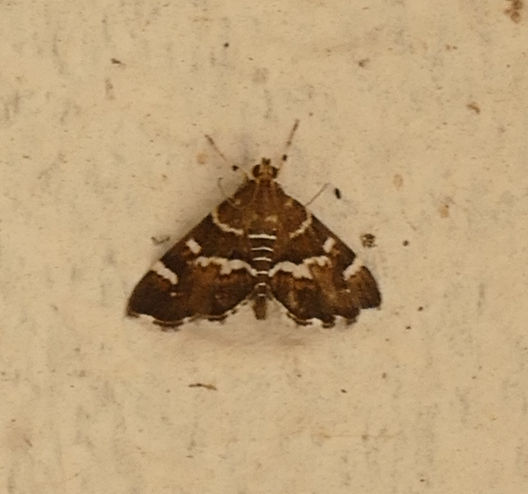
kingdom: Animalia
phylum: Arthropoda
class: Insecta
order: Lepidoptera
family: Crambidae
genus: Hymenia
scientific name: Hymenia perspectalis
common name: Spotted beet webworm
